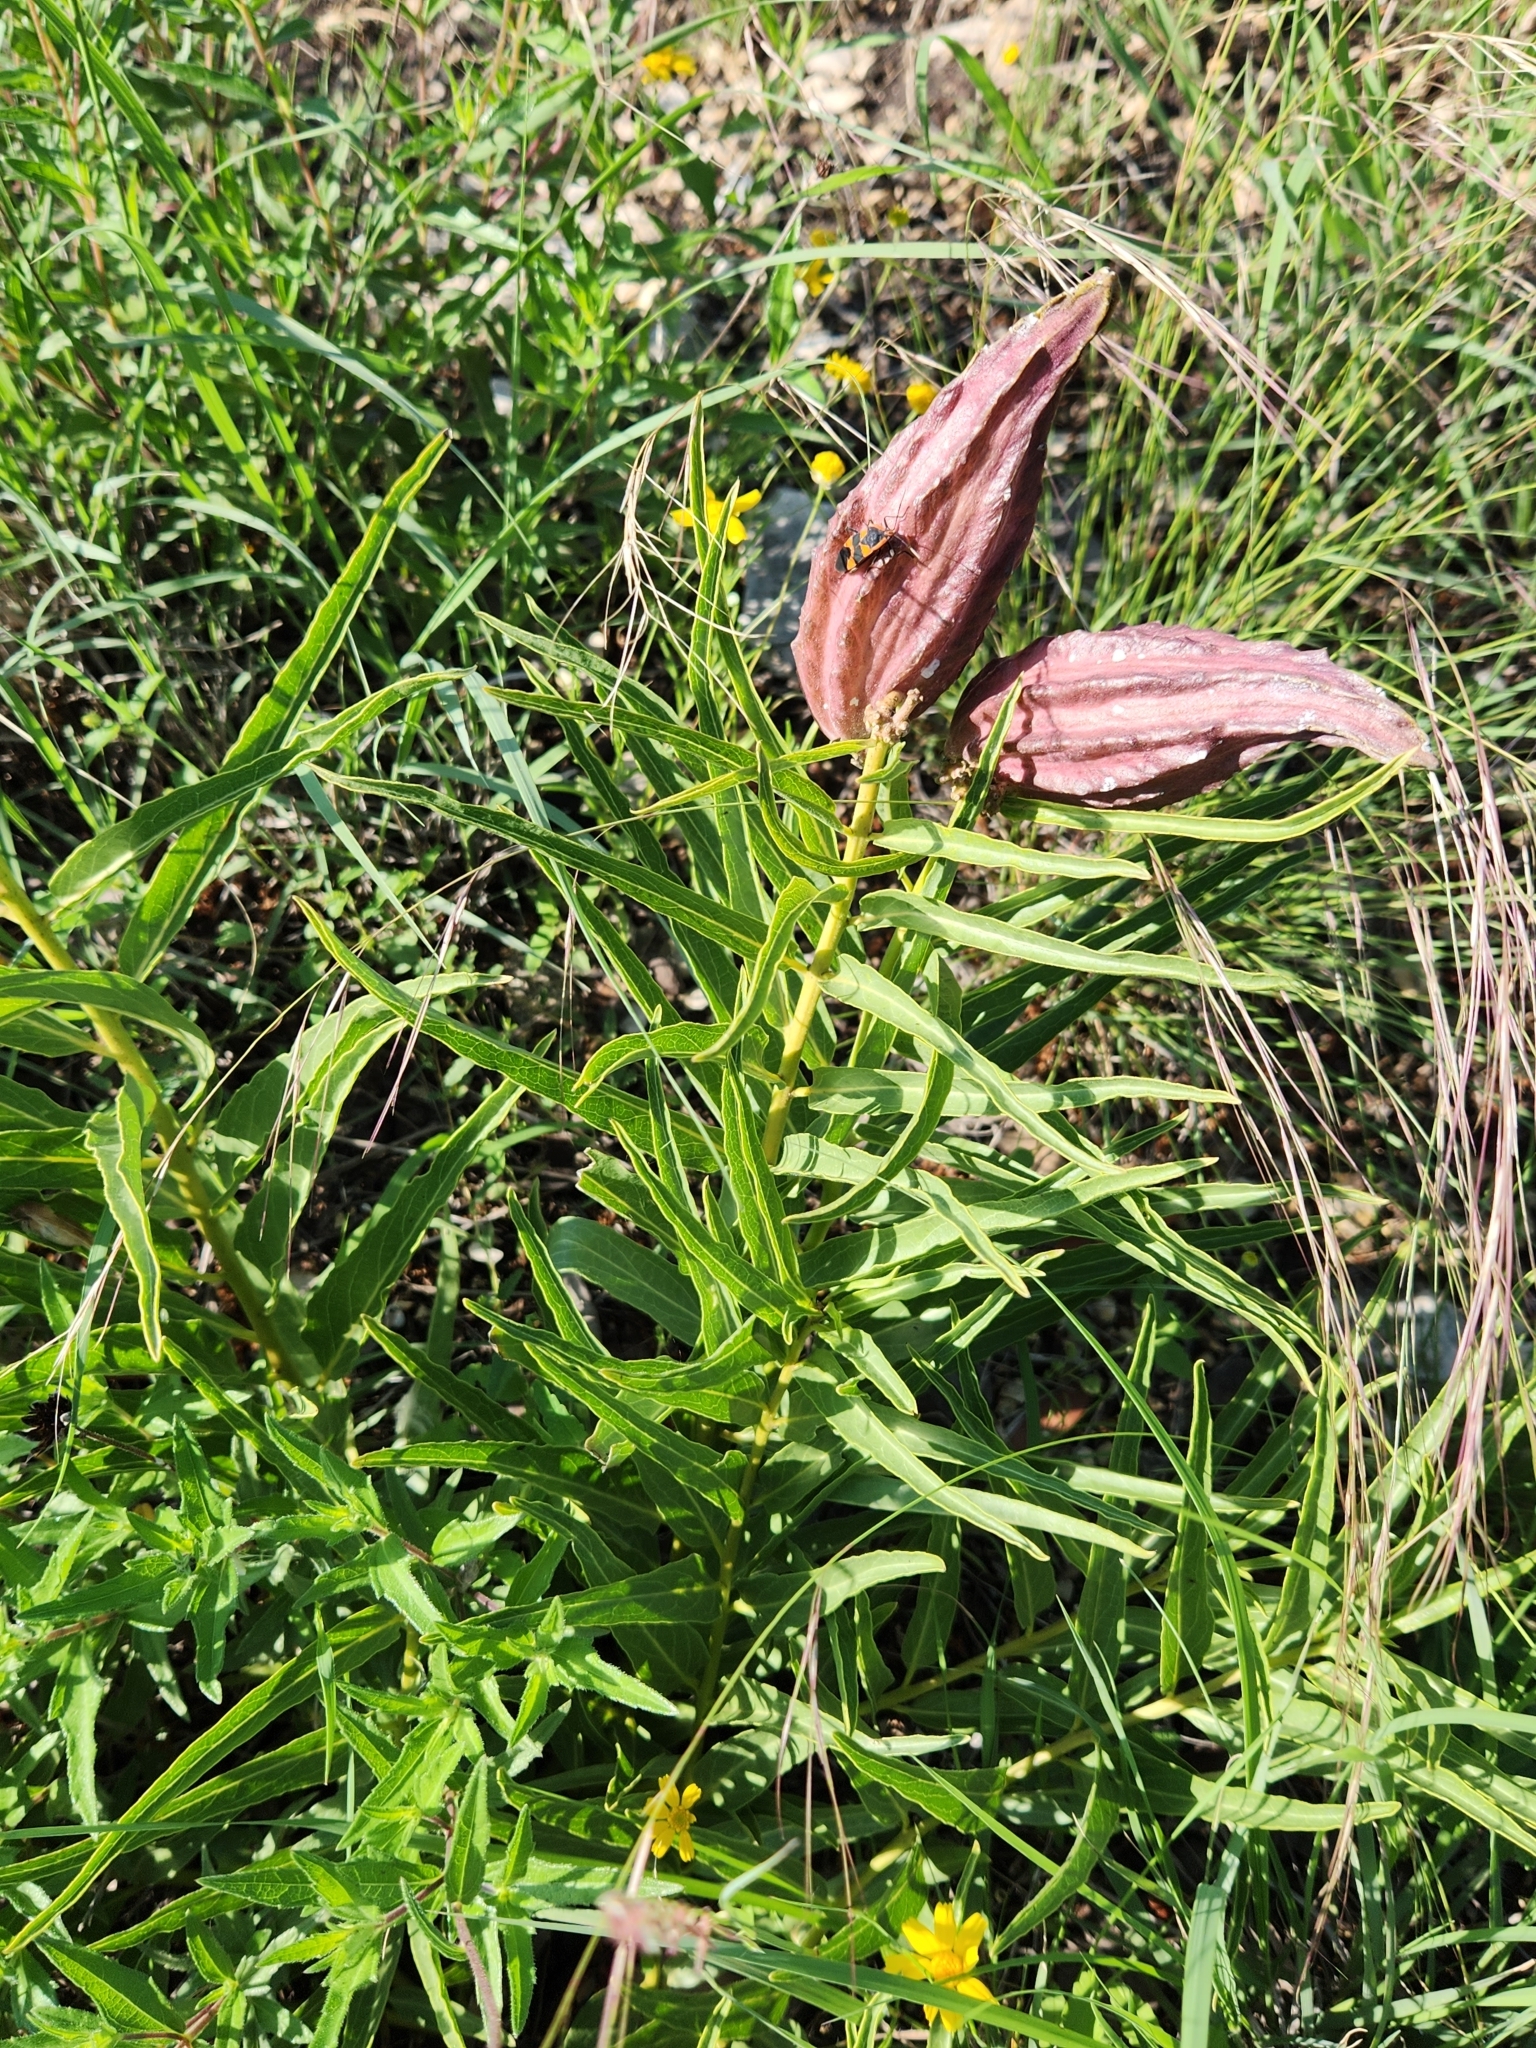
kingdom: Plantae
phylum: Tracheophyta
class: Magnoliopsida
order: Gentianales
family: Apocynaceae
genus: Asclepias
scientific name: Asclepias asperula
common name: Antelope horns
